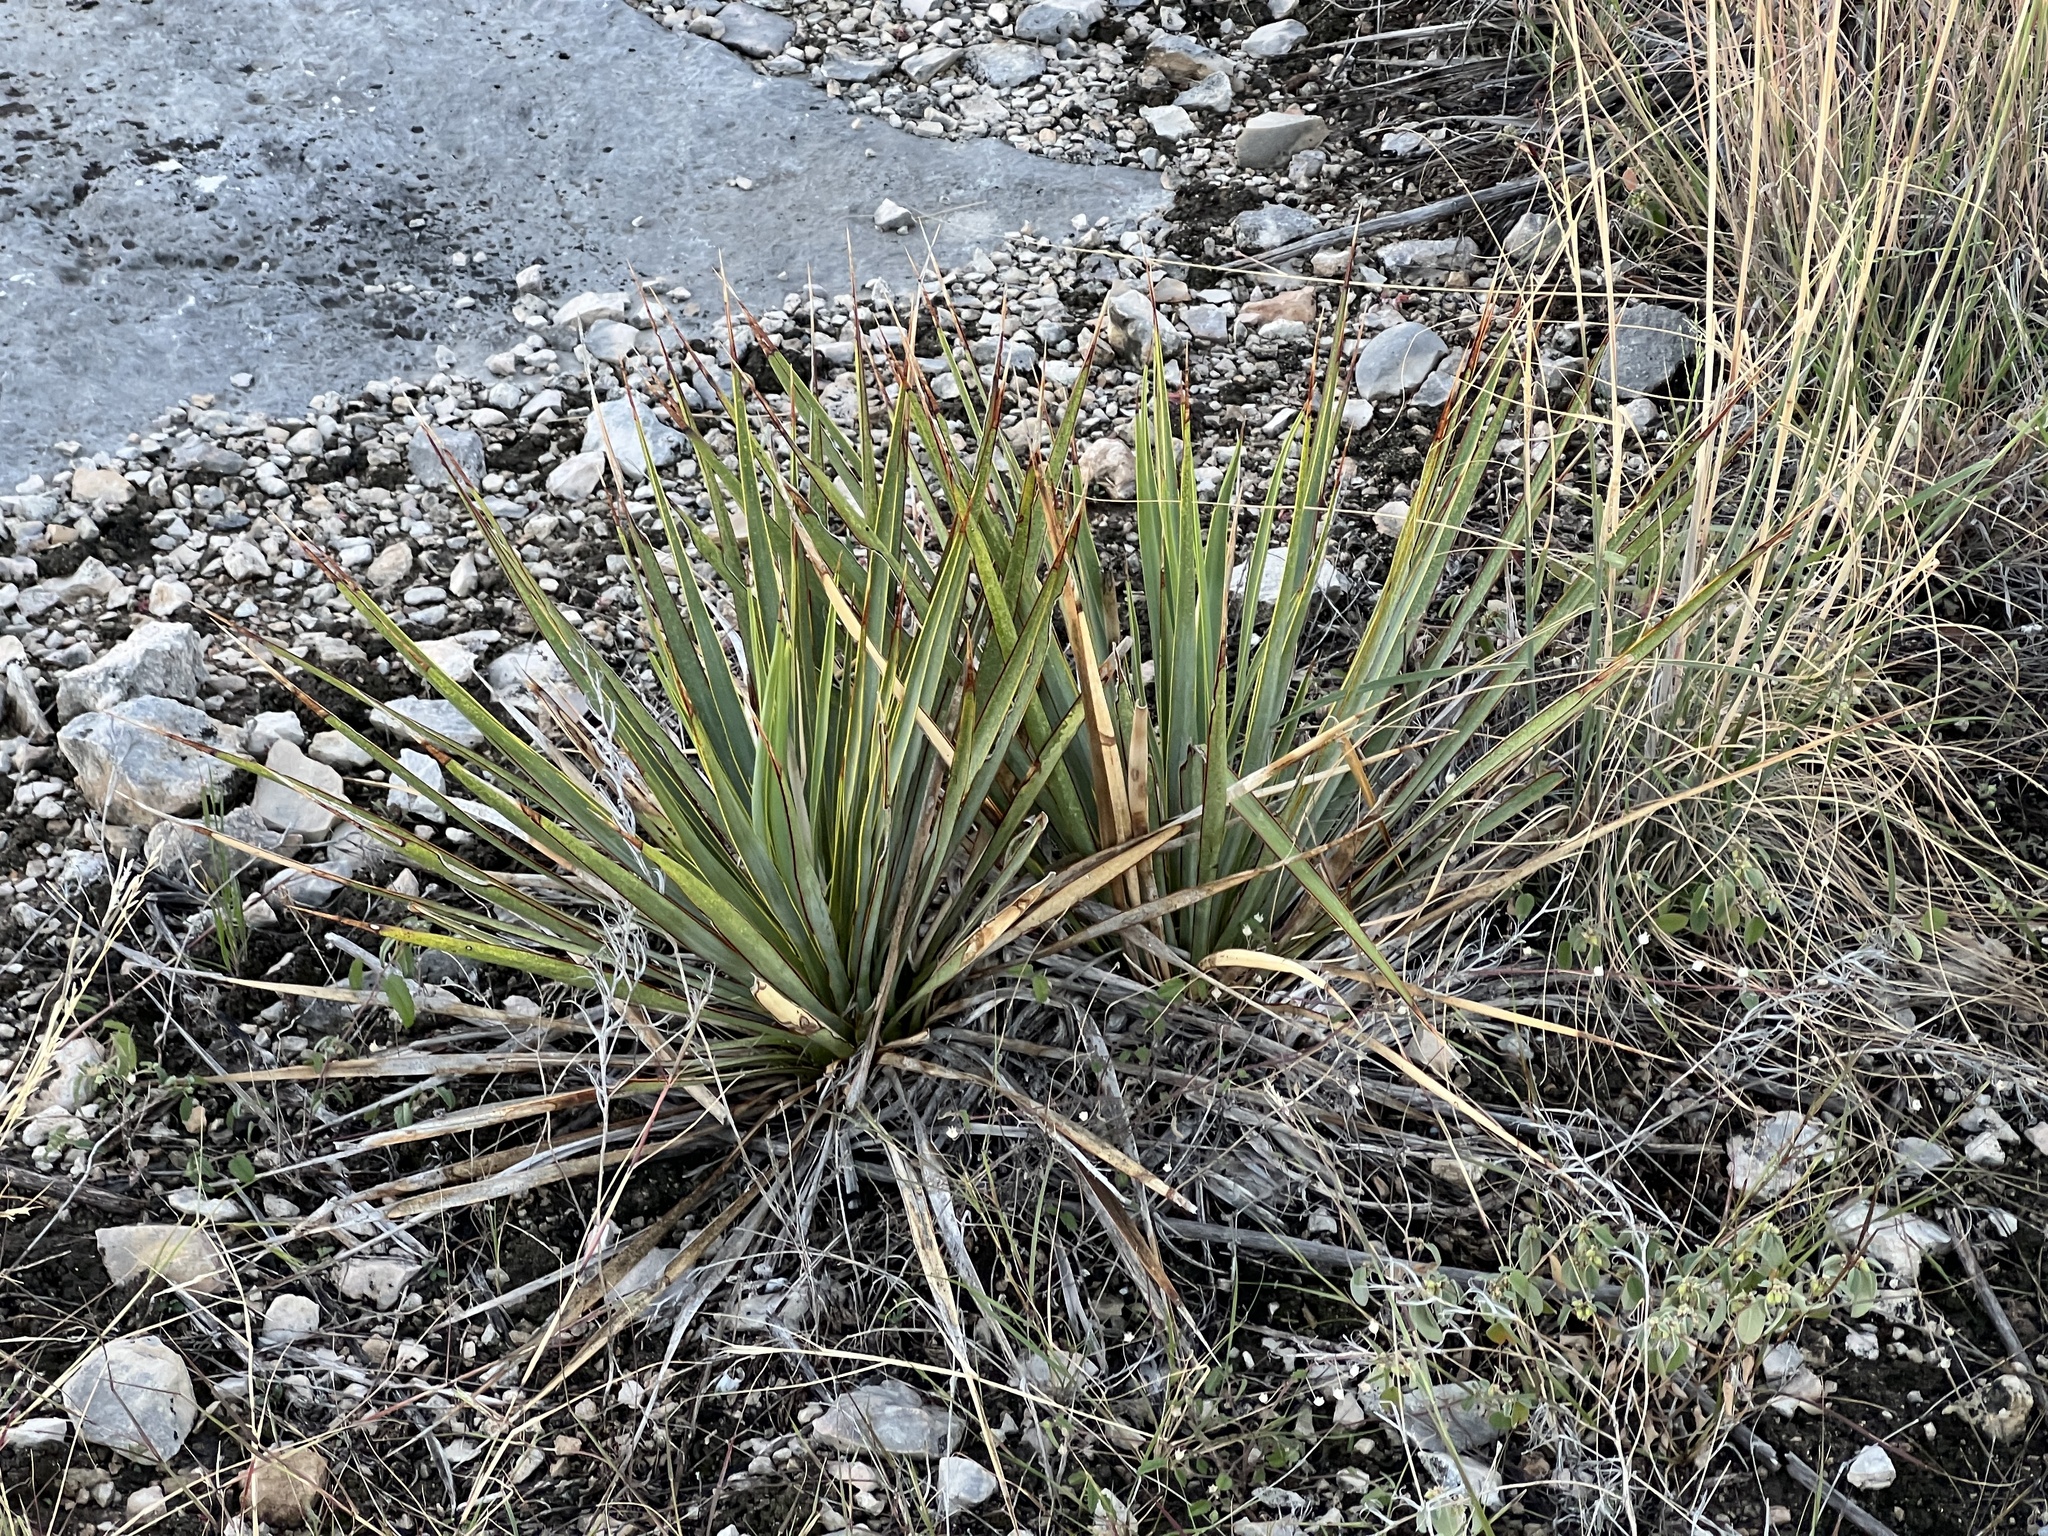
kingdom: Plantae
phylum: Tracheophyta
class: Liliopsida
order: Asparagales
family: Asparagaceae
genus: Yucca
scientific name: Yucca reverchonii
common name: San angelo yucca
